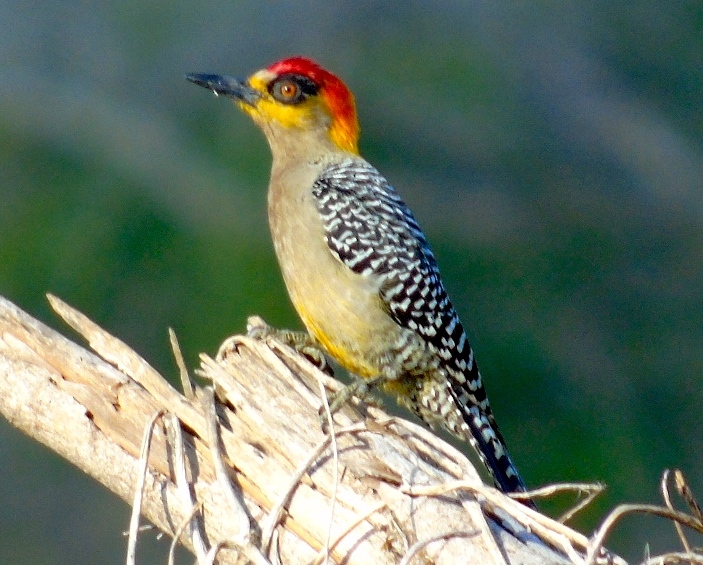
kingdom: Animalia
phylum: Chordata
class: Aves
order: Piciformes
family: Picidae
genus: Melanerpes
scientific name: Melanerpes chrysogenys
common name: Golden-cheeked woodpecker
